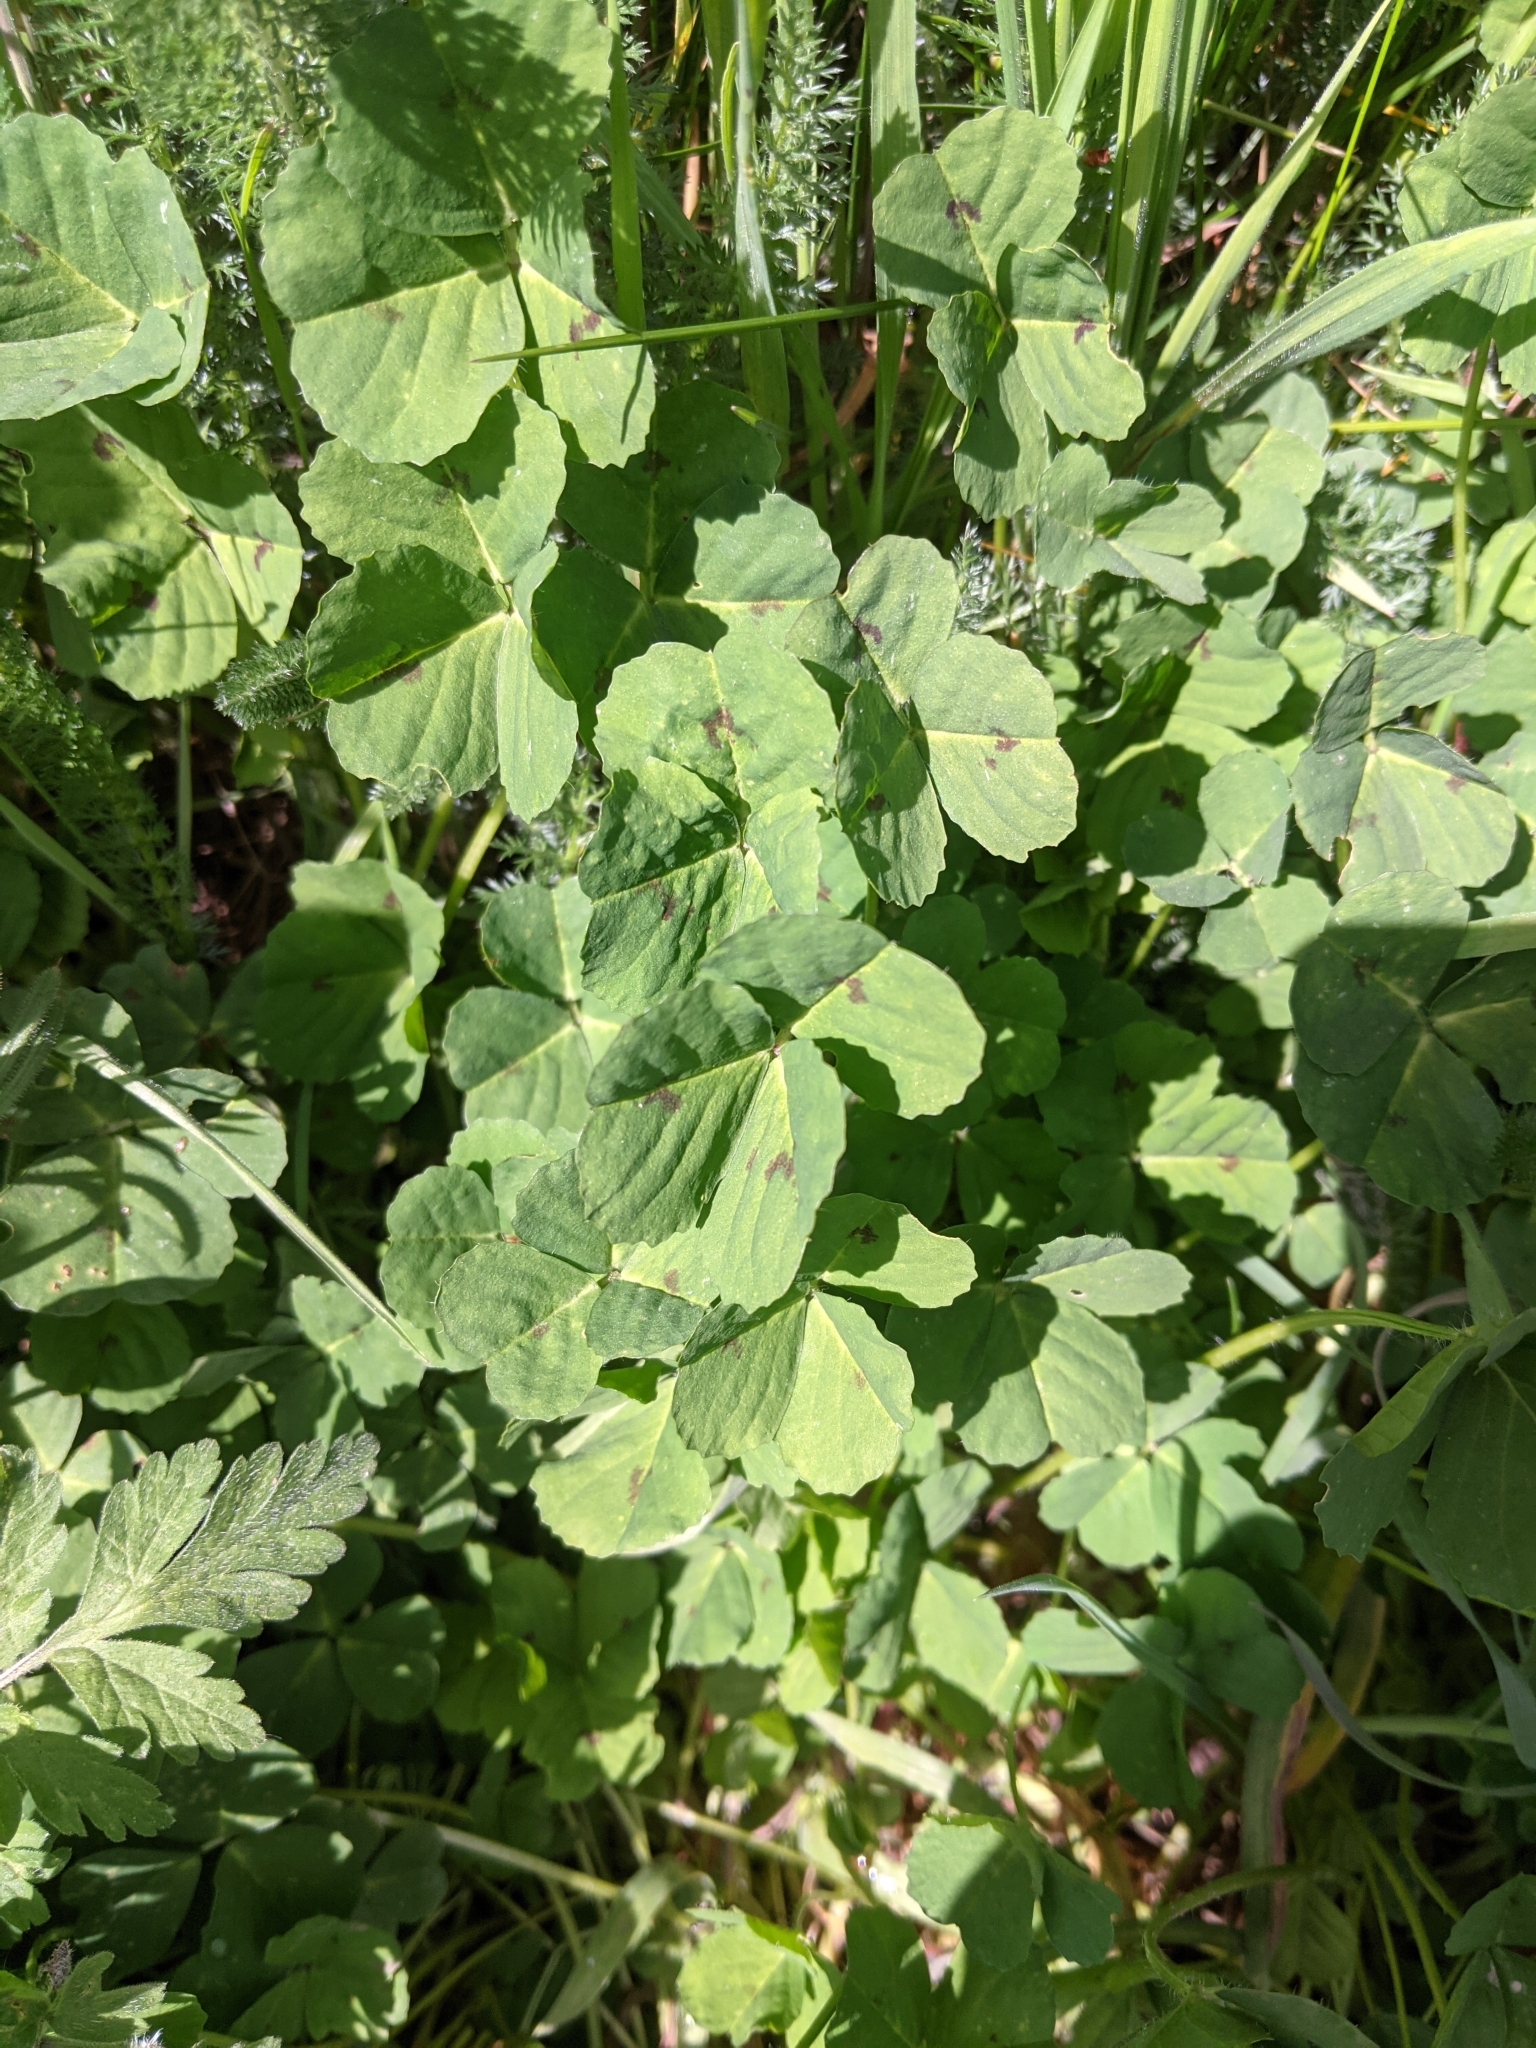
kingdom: Plantae
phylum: Tracheophyta
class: Magnoliopsida
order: Fabales
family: Fabaceae
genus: Medicago
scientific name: Medicago arabica
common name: Spotted medick
